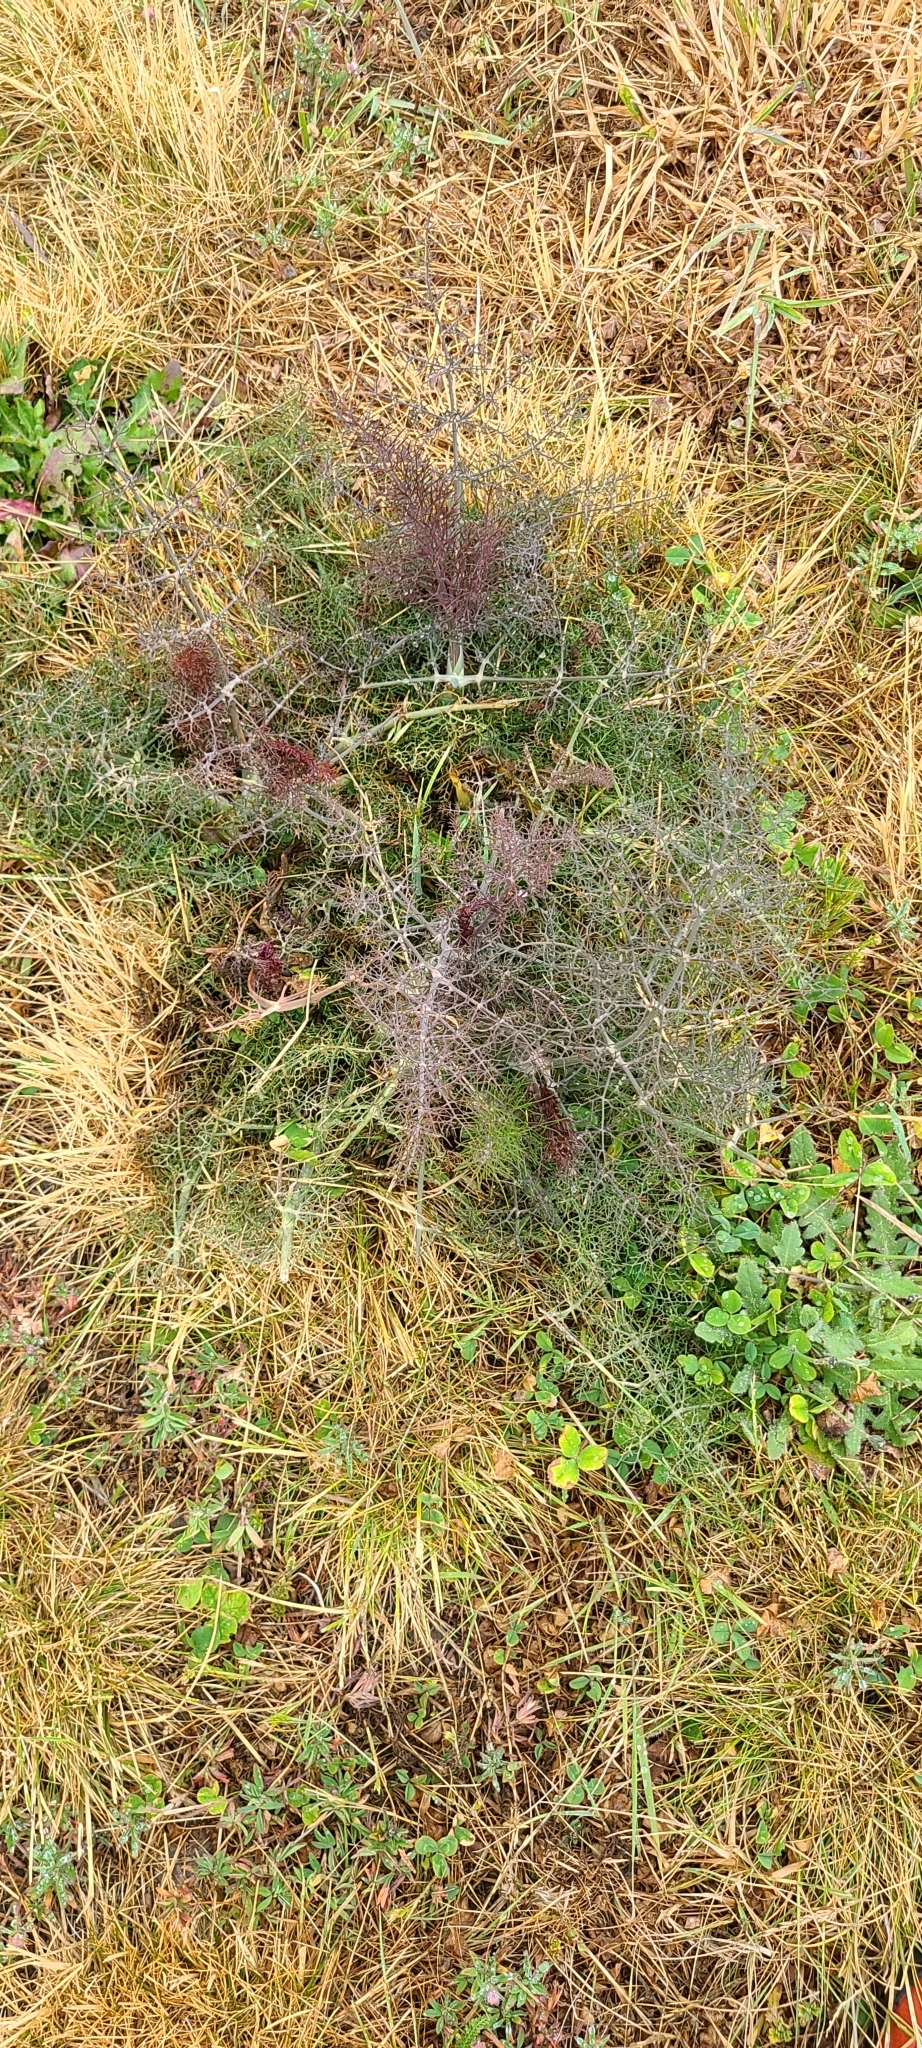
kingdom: Plantae
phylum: Tracheophyta
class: Magnoliopsida
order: Apiales
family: Apiaceae
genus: Foeniculum
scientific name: Foeniculum vulgare
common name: Fennel
